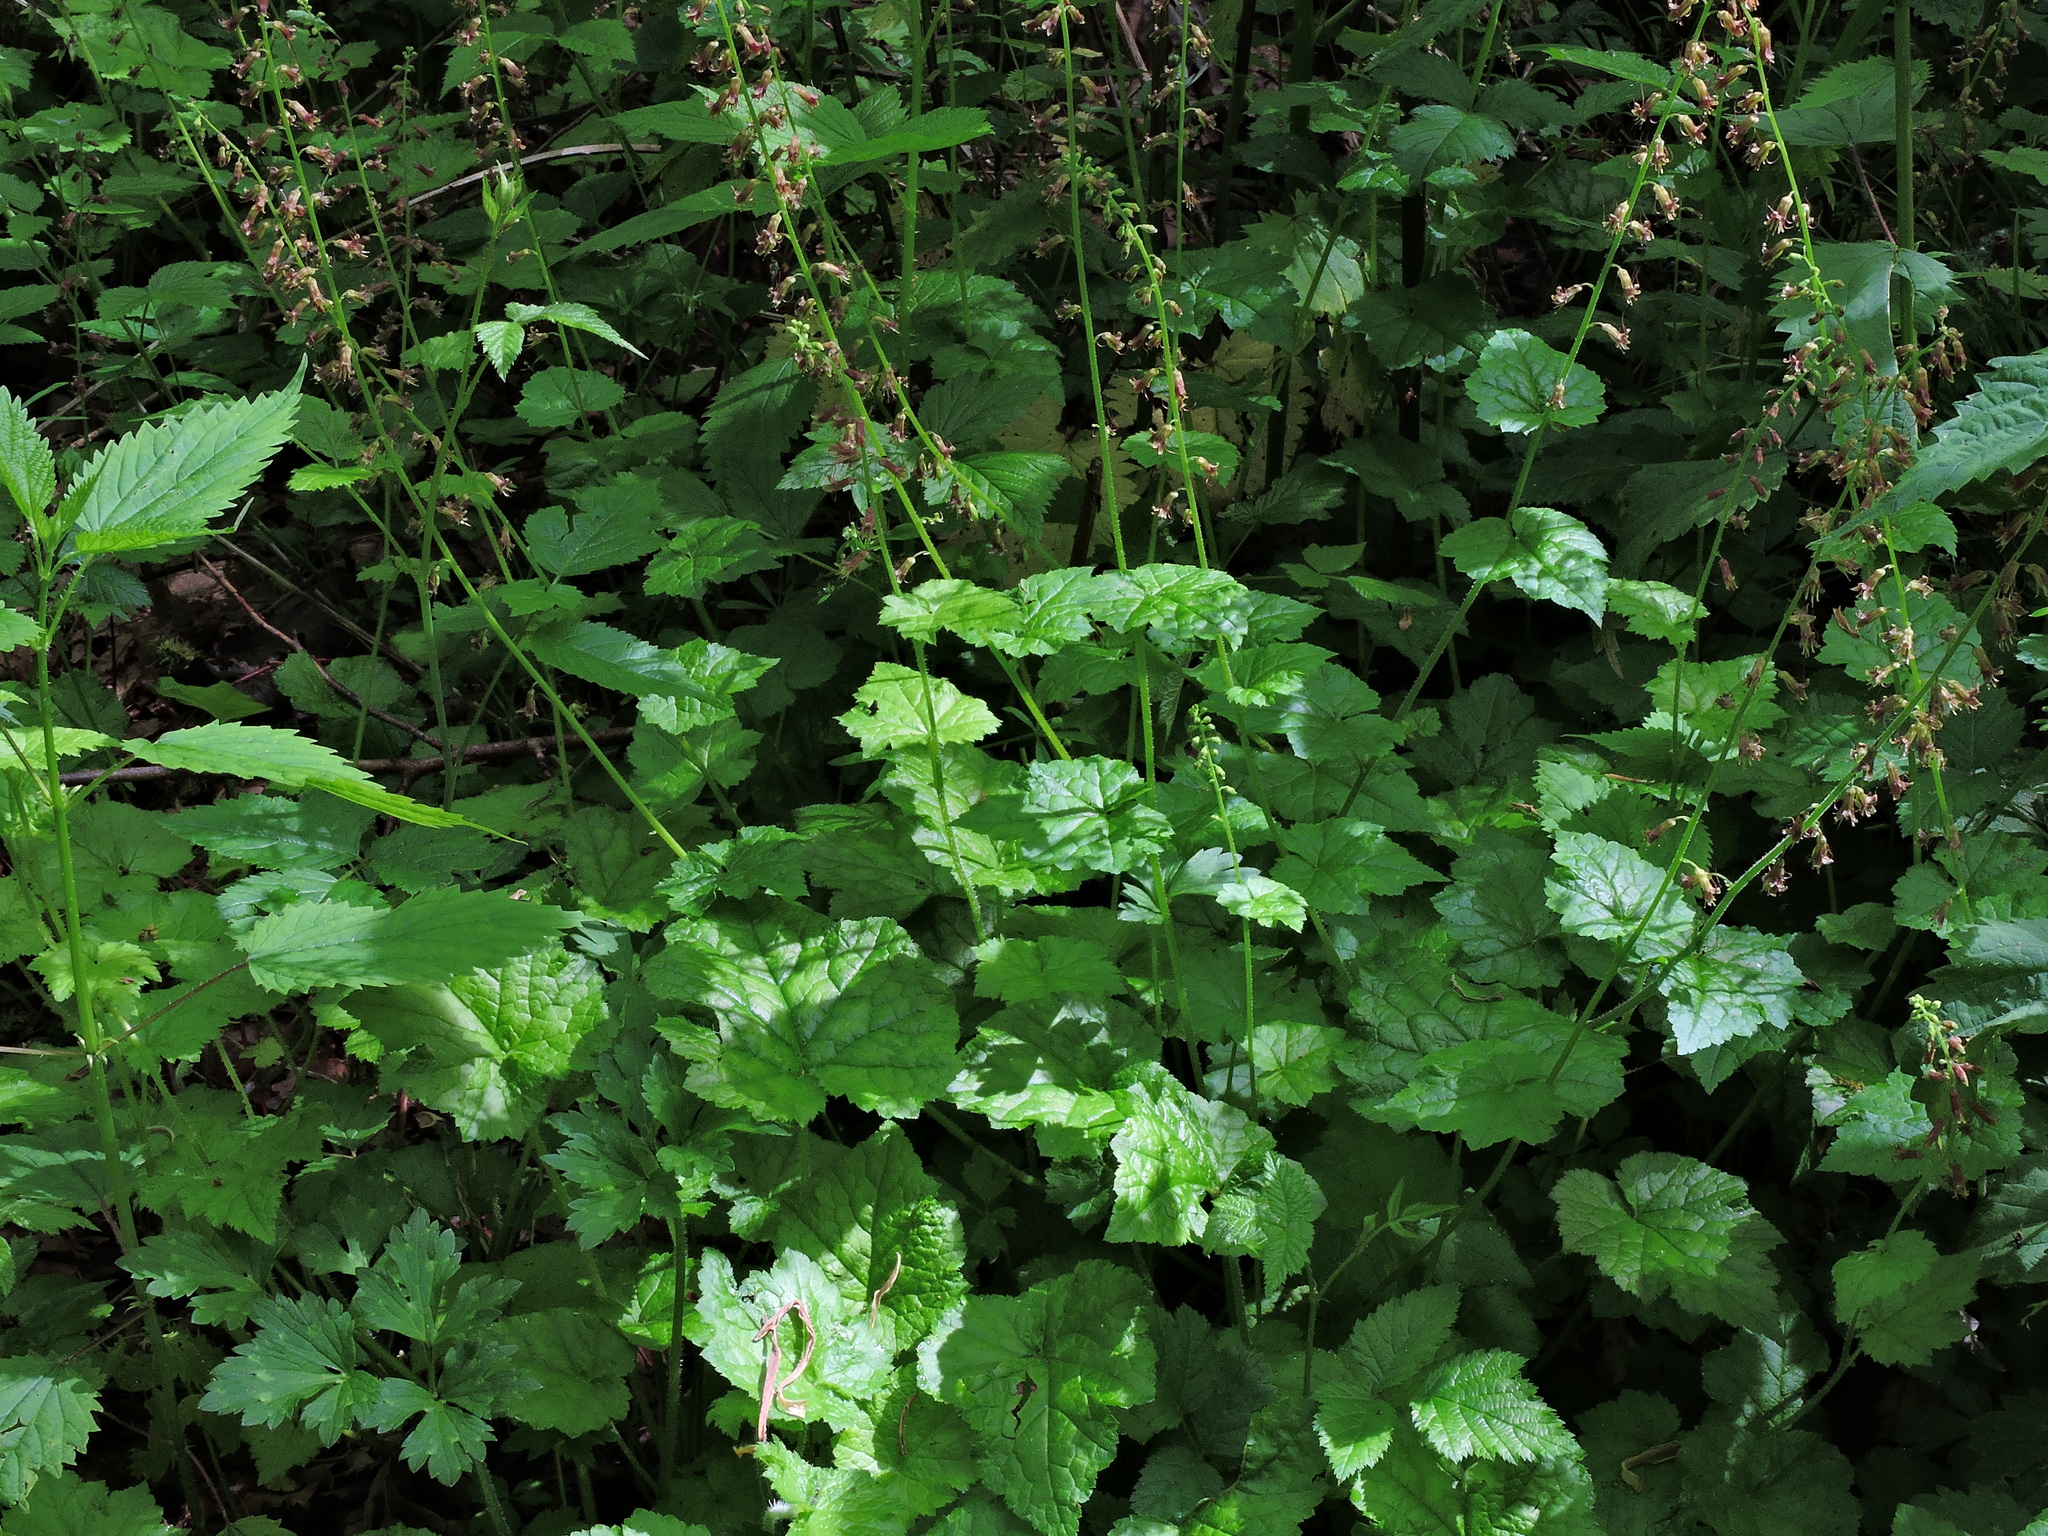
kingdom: Plantae
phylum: Tracheophyta
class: Magnoliopsida
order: Saxifragales
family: Saxifragaceae
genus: Tolmiea
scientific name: Tolmiea menziesii
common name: Pick-a-back-plant
